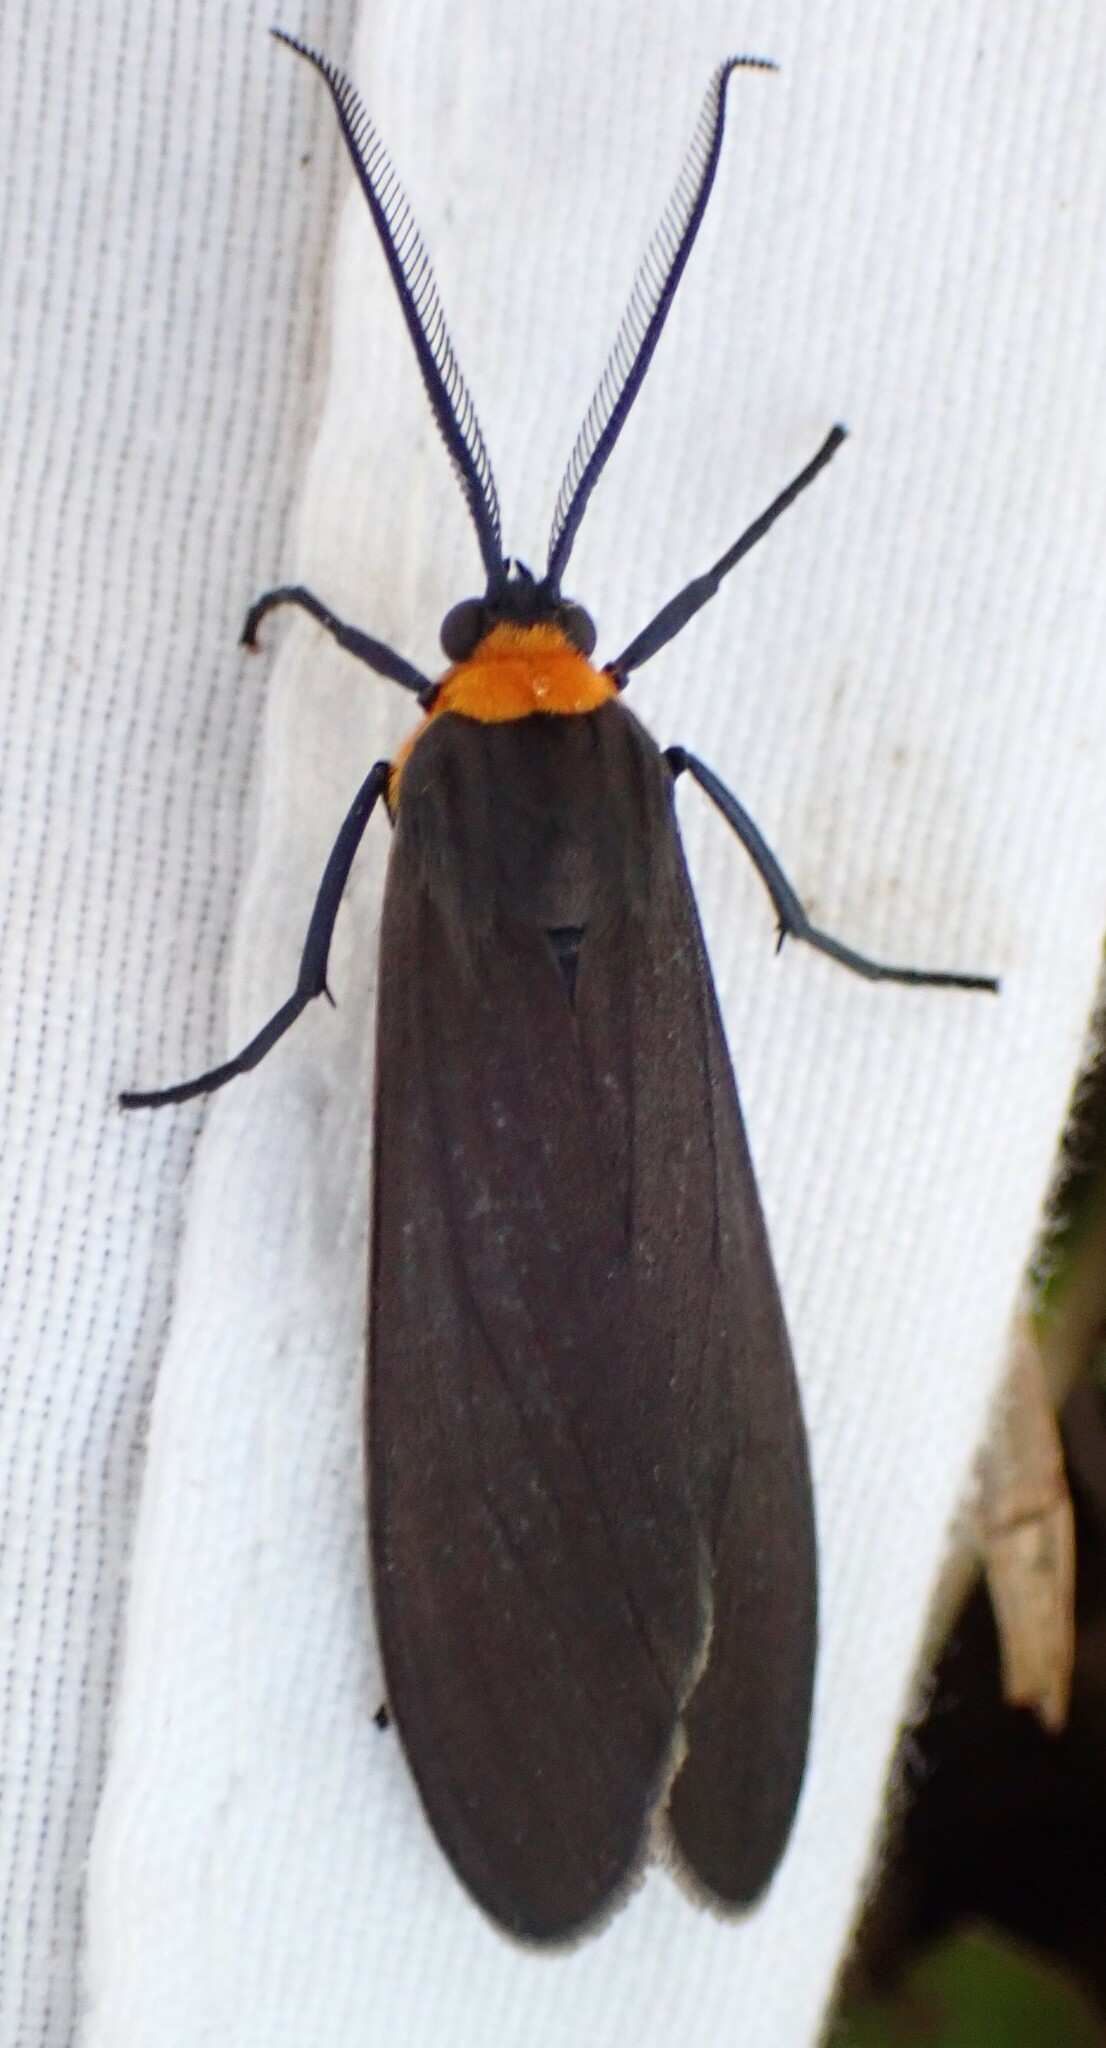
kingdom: Animalia
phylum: Arthropoda
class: Insecta
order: Lepidoptera
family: Erebidae
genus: Cisseps
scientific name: Cisseps fulvicollis
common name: Yellow-collared scape moth
